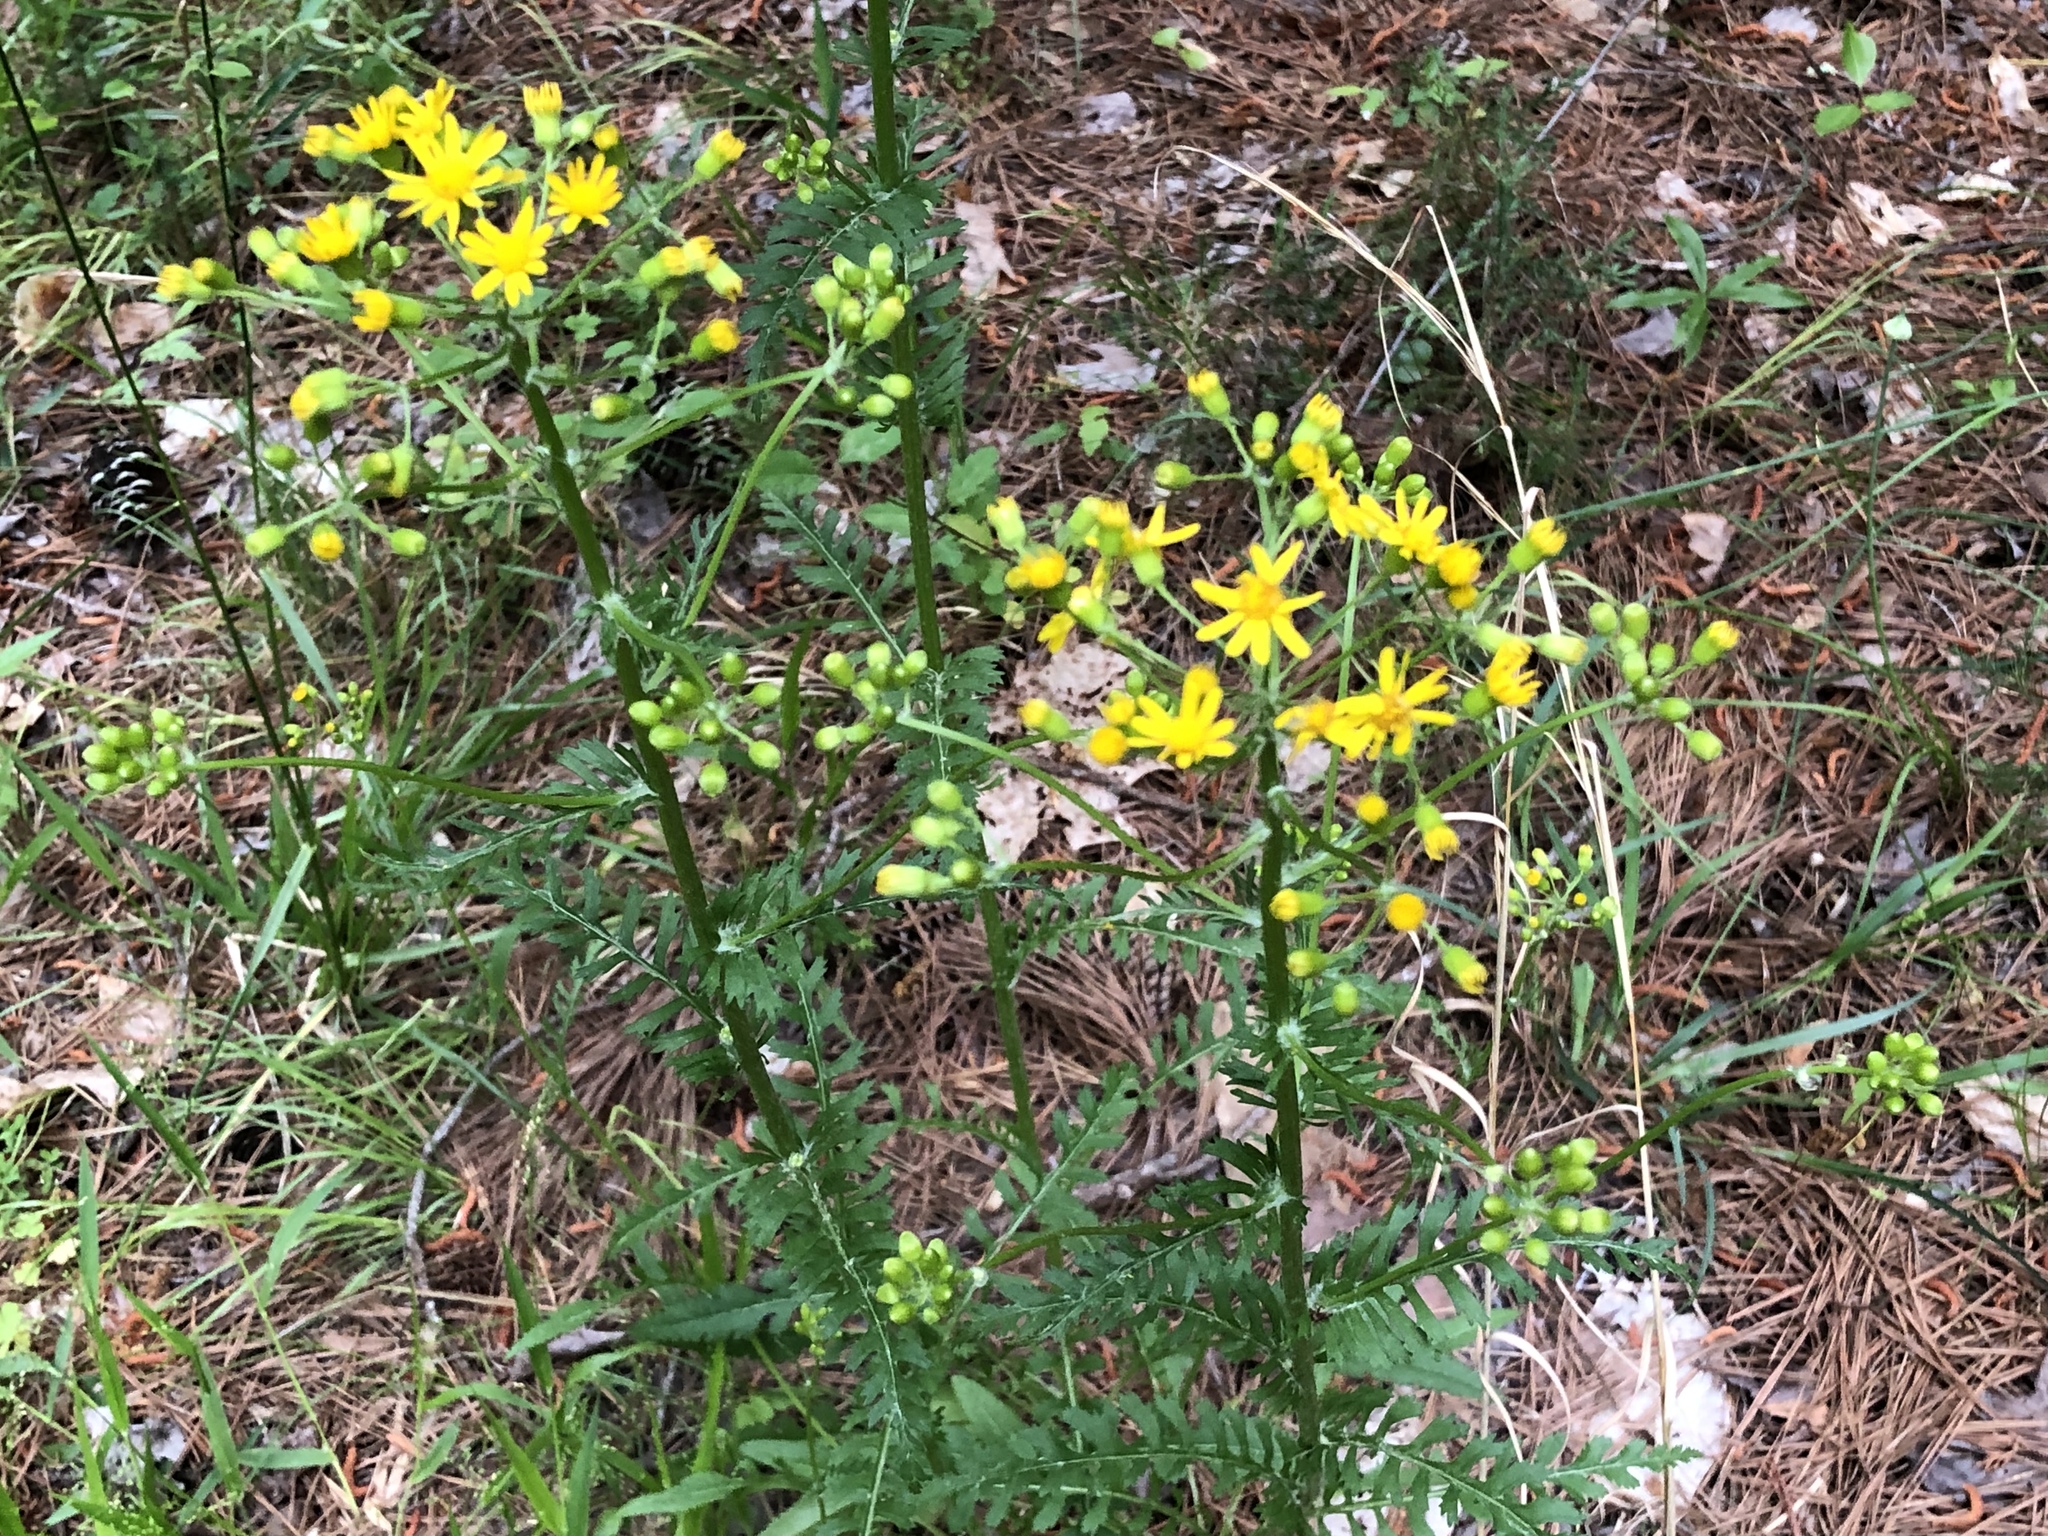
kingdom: Plantae
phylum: Tracheophyta
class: Magnoliopsida
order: Asterales
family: Asteraceae
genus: Packera
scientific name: Packera anonyma
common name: Small ragwort
